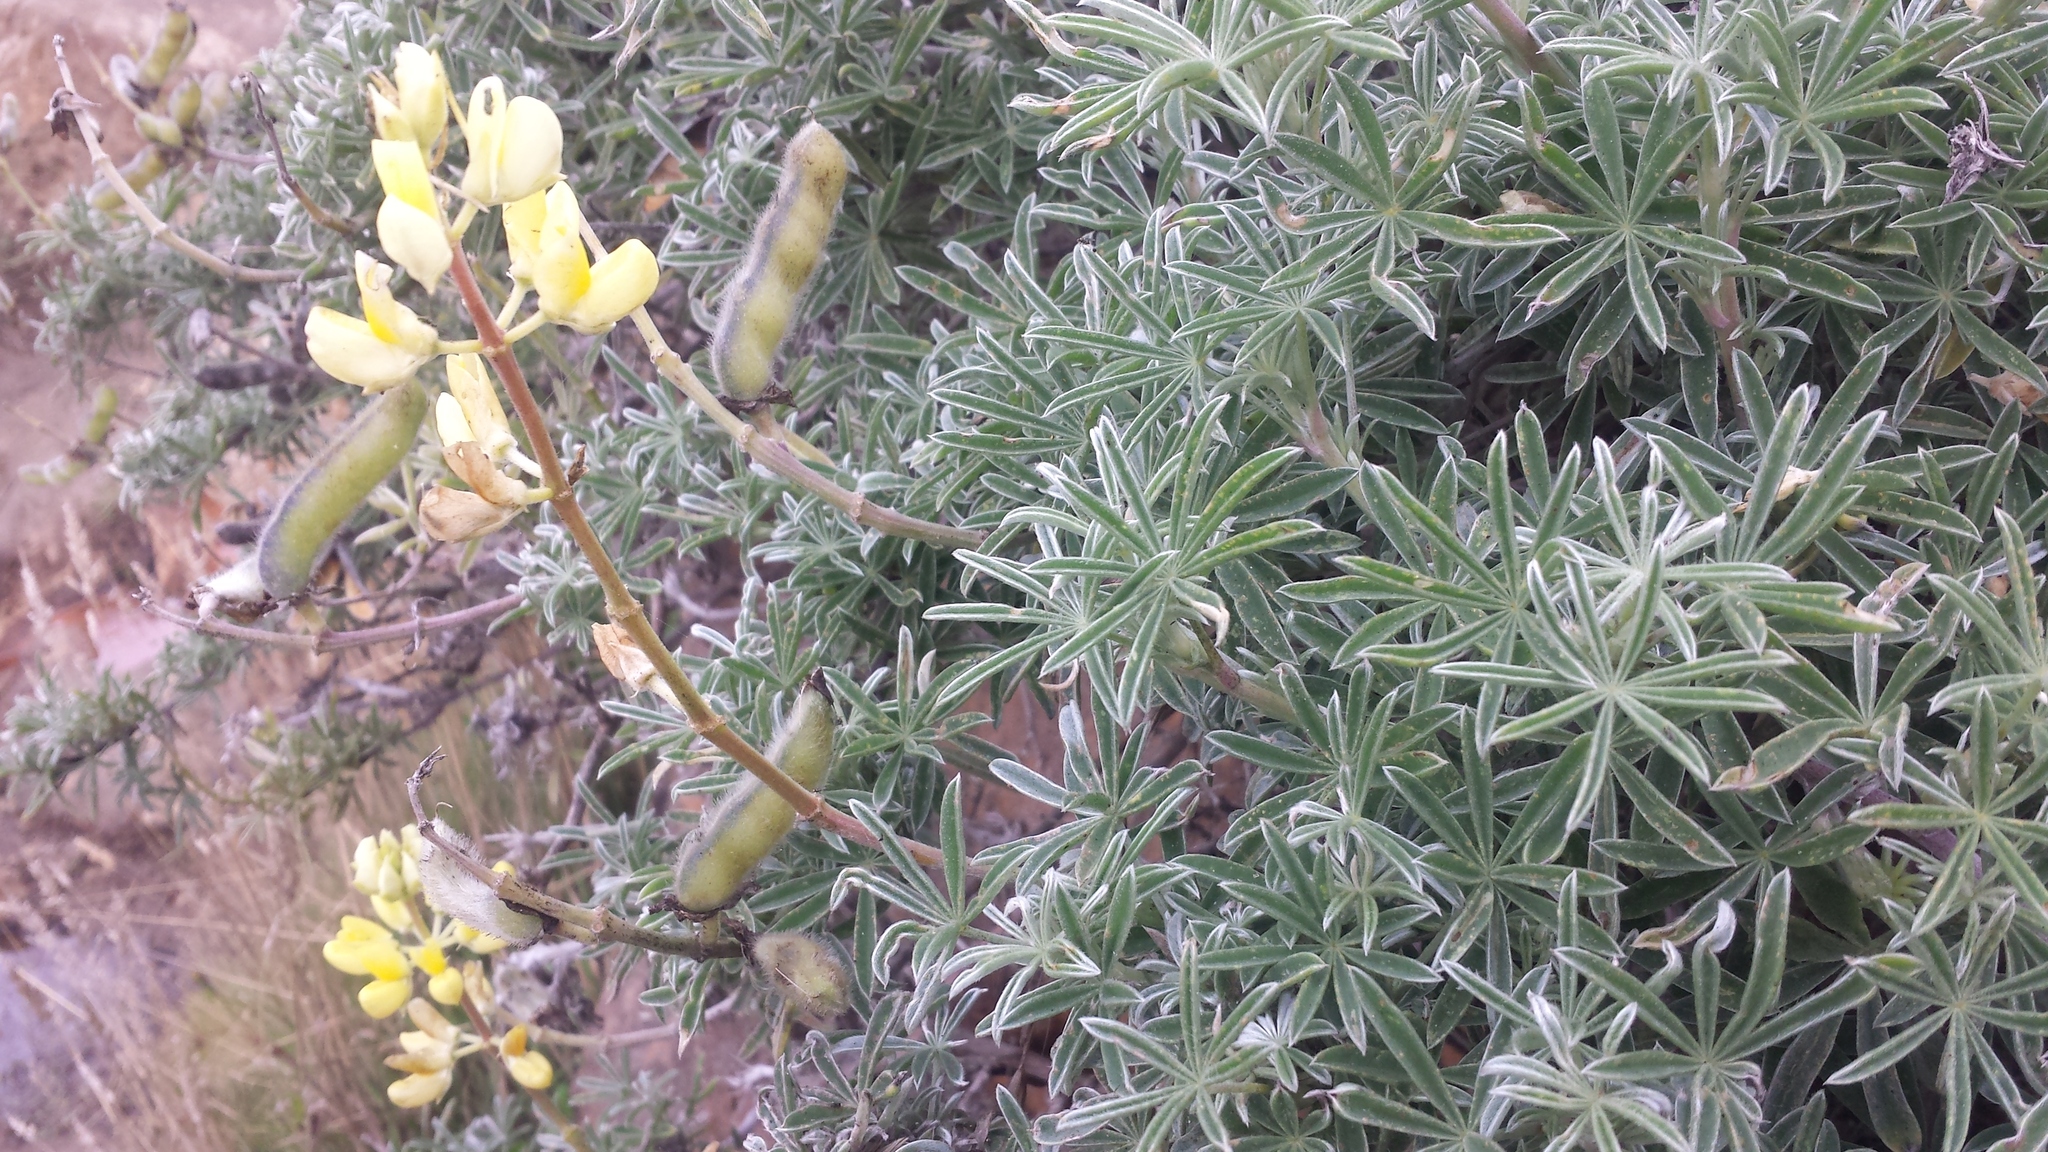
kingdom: Plantae
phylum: Tracheophyta
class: Magnoliopsida
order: Fabales
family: Fabaceae
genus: Lupinus
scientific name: Lupinus arboreus
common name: Yellow bush lupine
